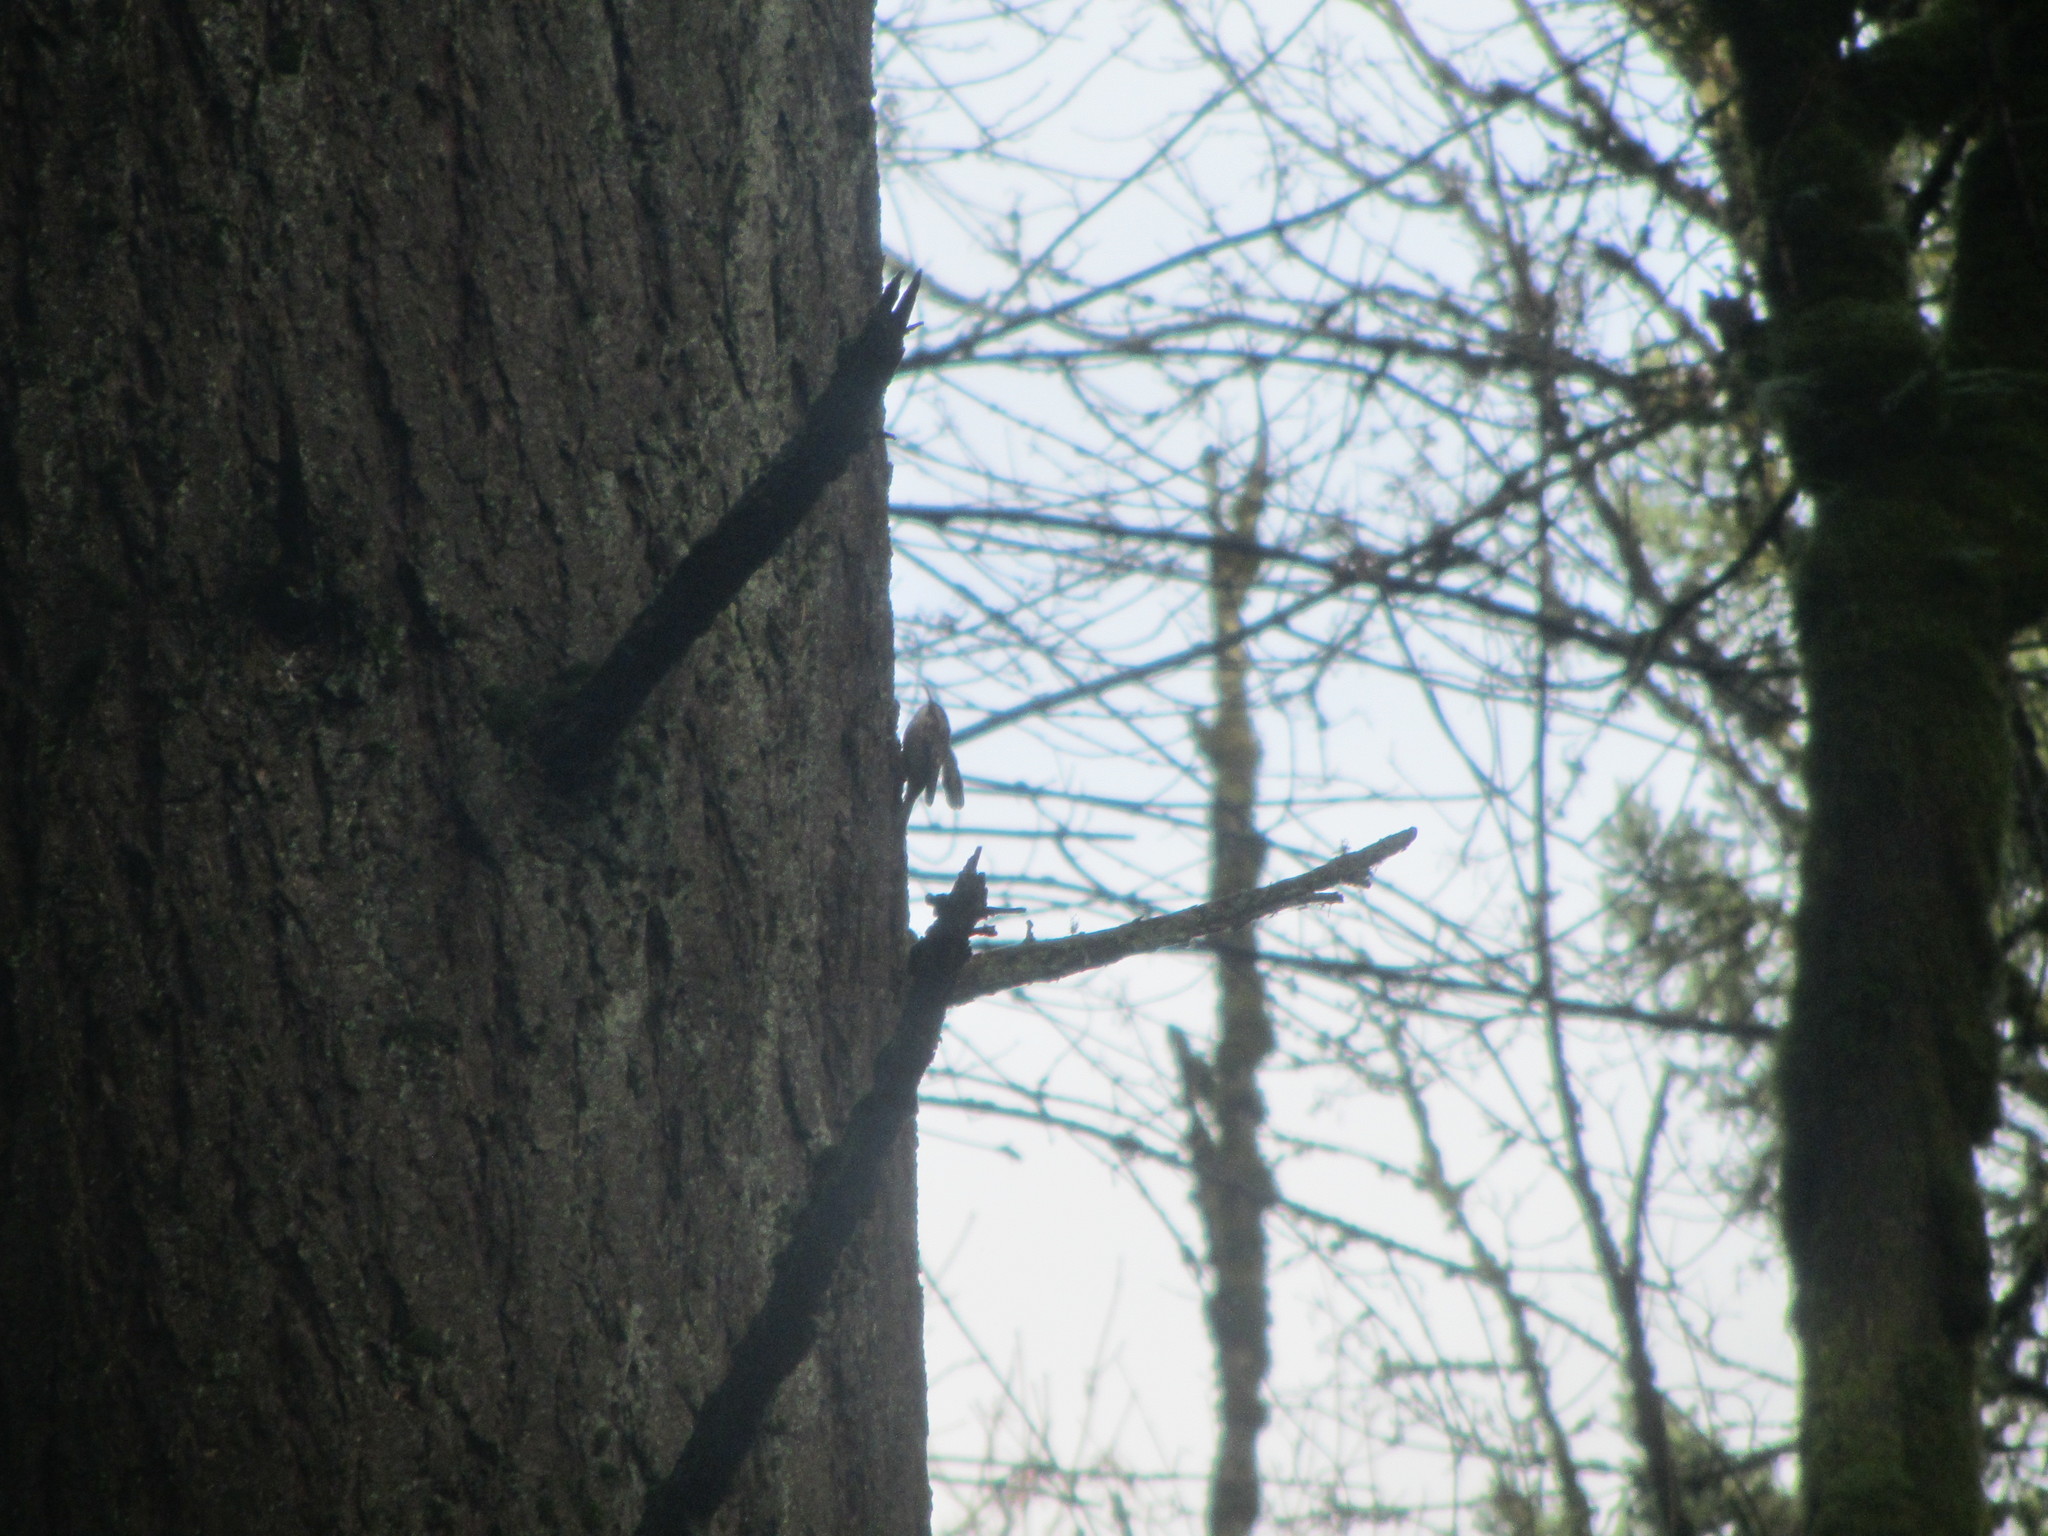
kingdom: Animalia
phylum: Chordata
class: Aves
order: Passeriformes
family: Certhiidae
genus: Certhia
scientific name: Certhia americana
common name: Brown creeper
